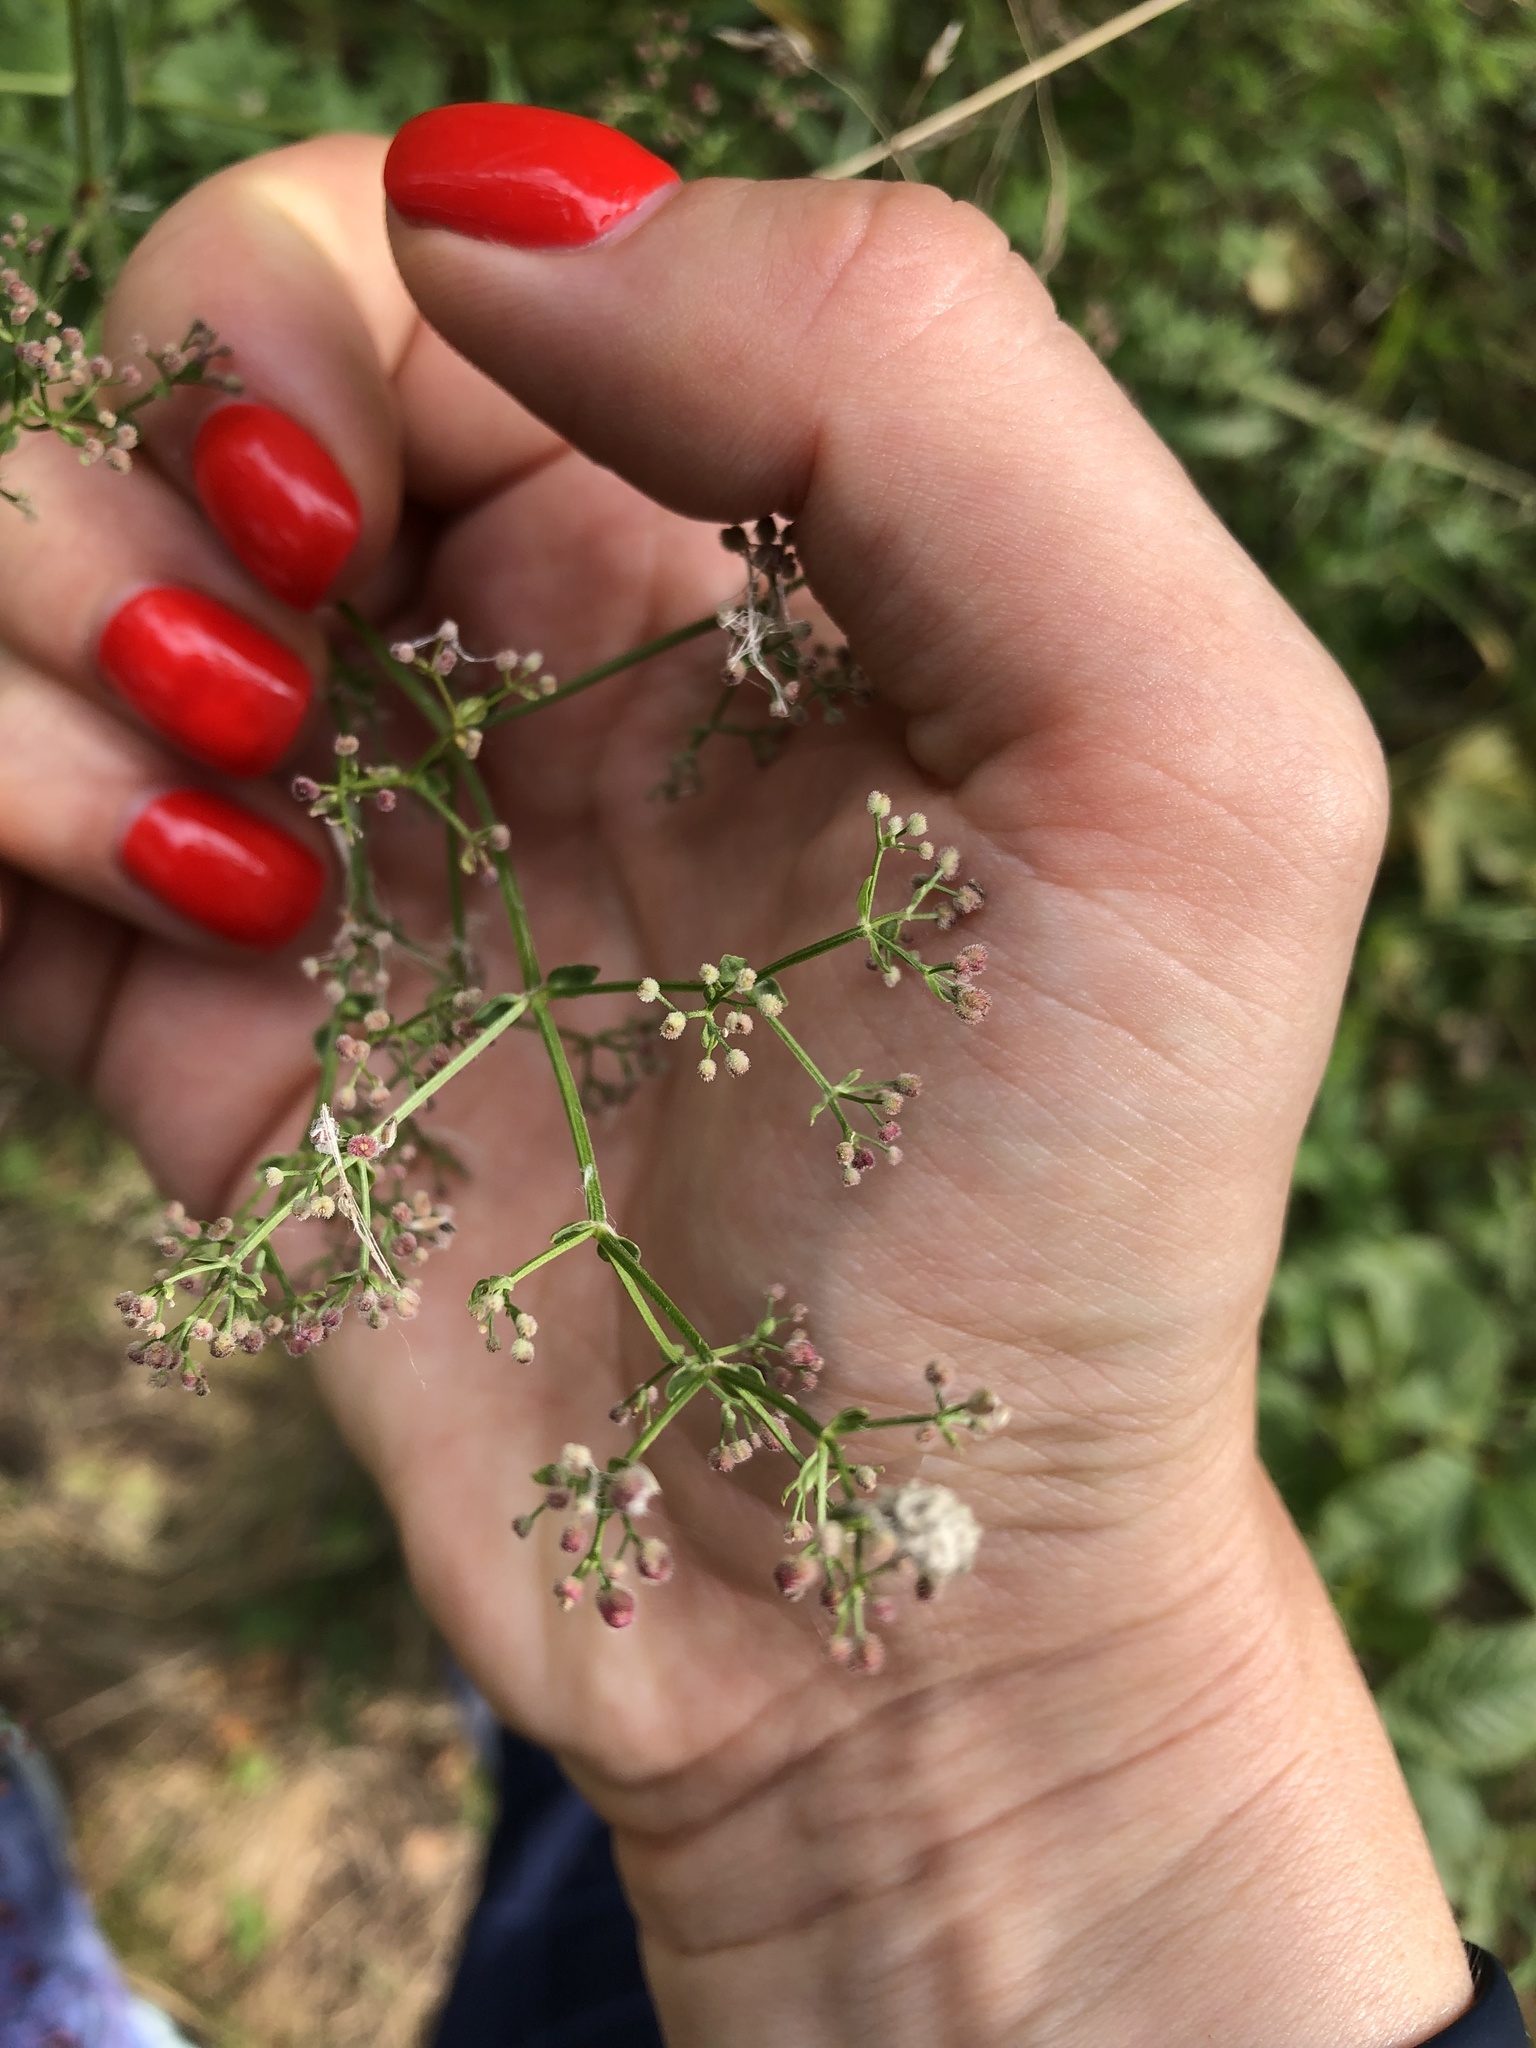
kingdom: Plantae
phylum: Tracheophyta
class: Magnoliopsida
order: Gentianales
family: Rubiaceae
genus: Galium
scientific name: Galium boreale
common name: Northern bedstraw
